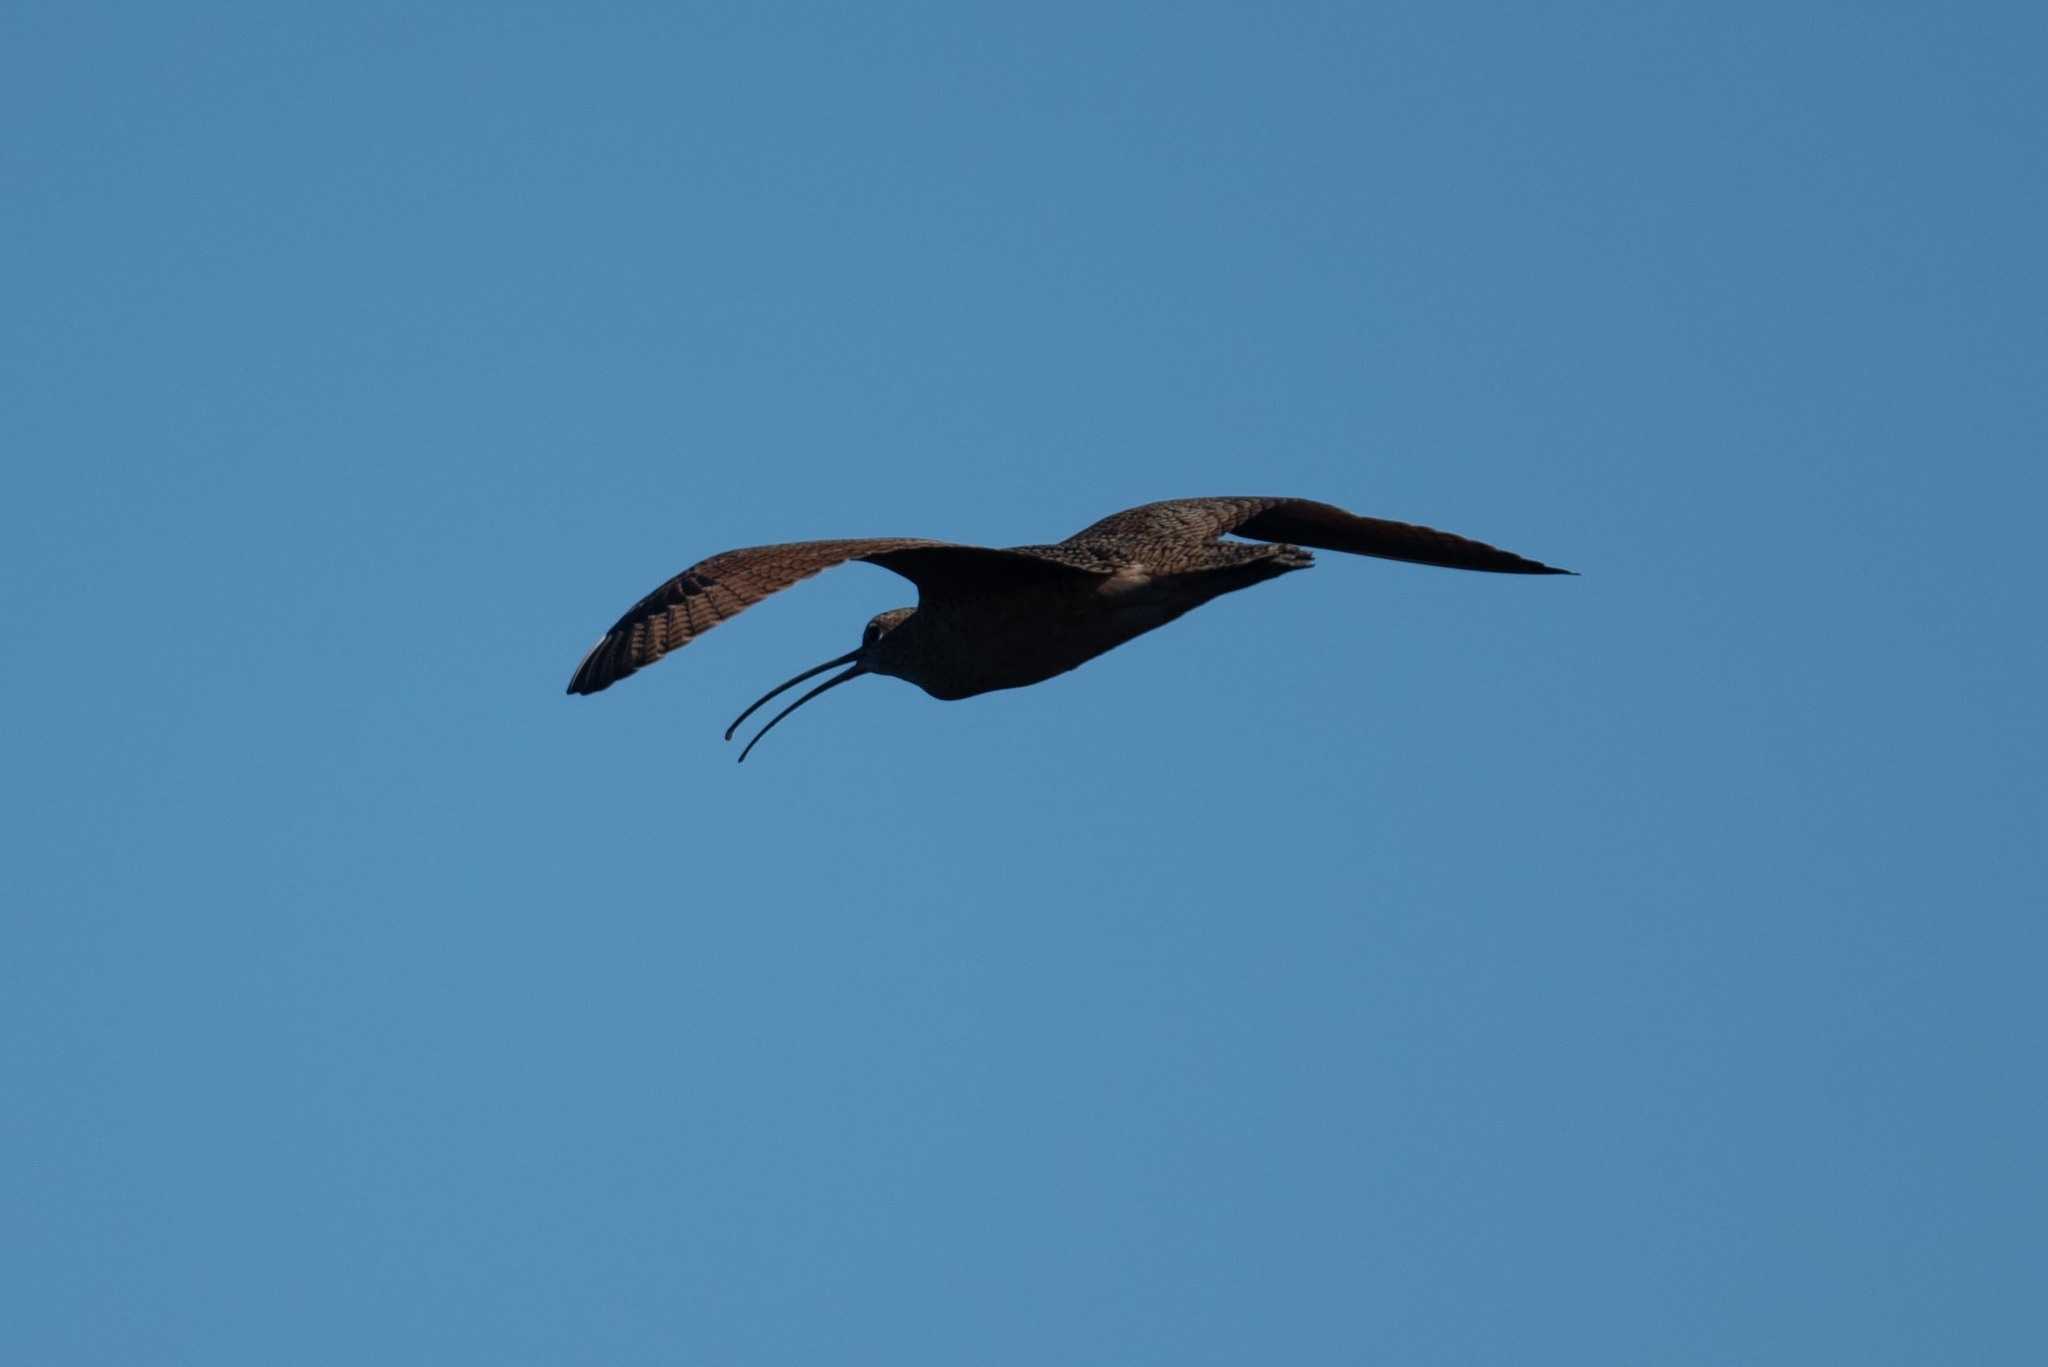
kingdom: Animalia
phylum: Chordata
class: Aves
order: Charadriiformes
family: Scolopacidae
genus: Numenius
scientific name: Numenius americanus
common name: Long-billed curlew
